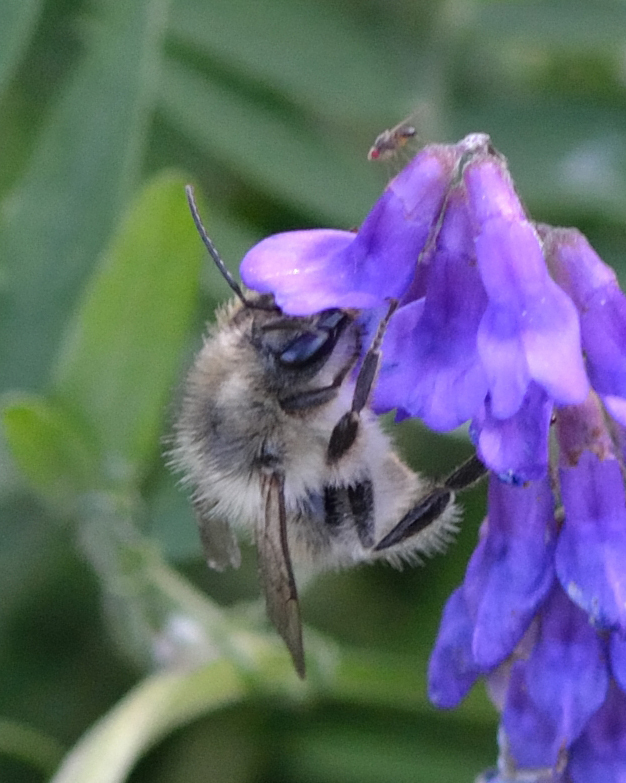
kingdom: Animalia
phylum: Arthropoda
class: Insecta
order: Hymenoptera
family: Apidae
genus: Bombus
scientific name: Bombus deuteronymus
